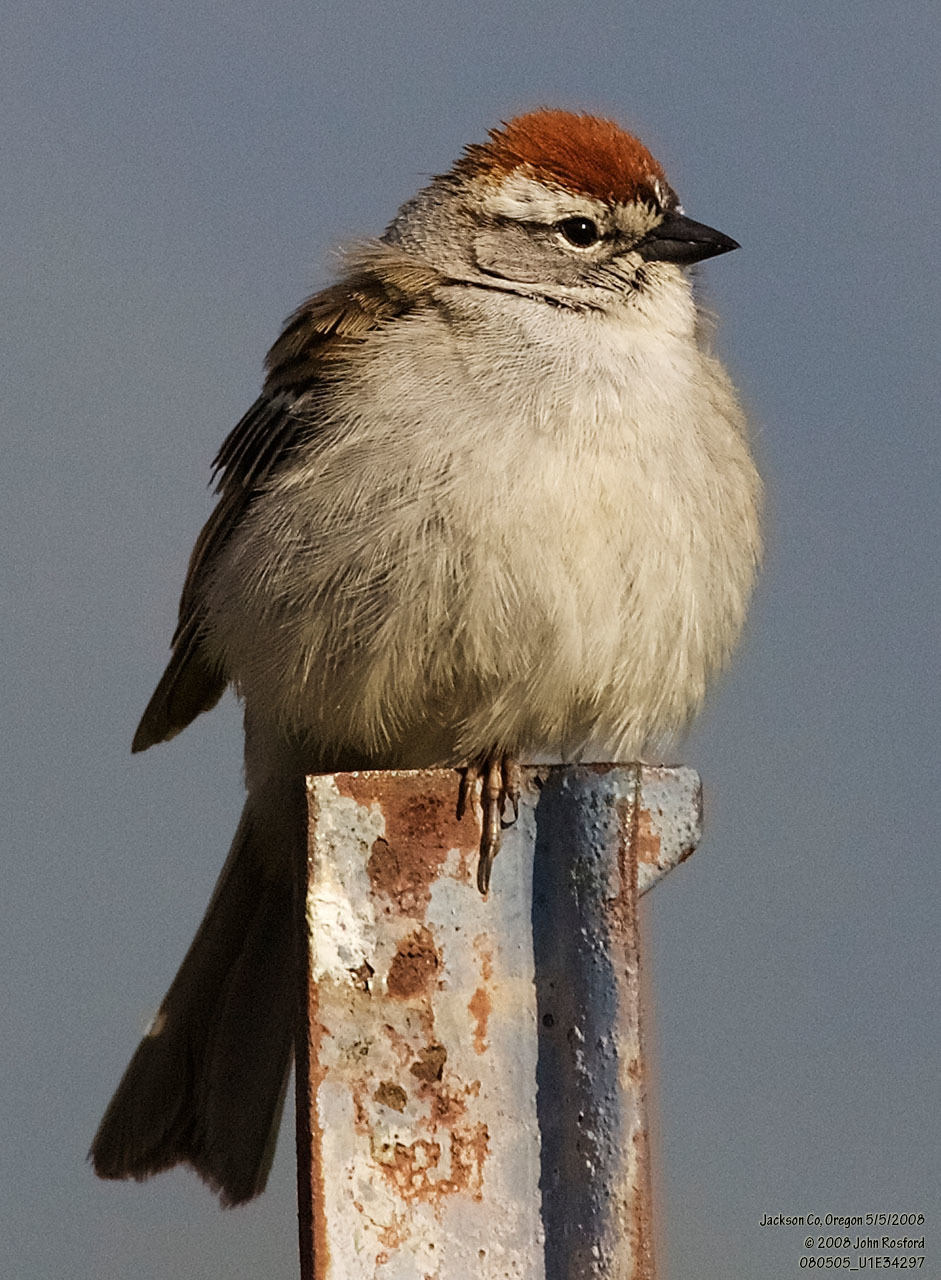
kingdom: Animalia
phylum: Chordata
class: Aves
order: Passeriformes
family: Passerellidae
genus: Spizella
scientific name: Spizella passerina
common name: Chipping sparrow
